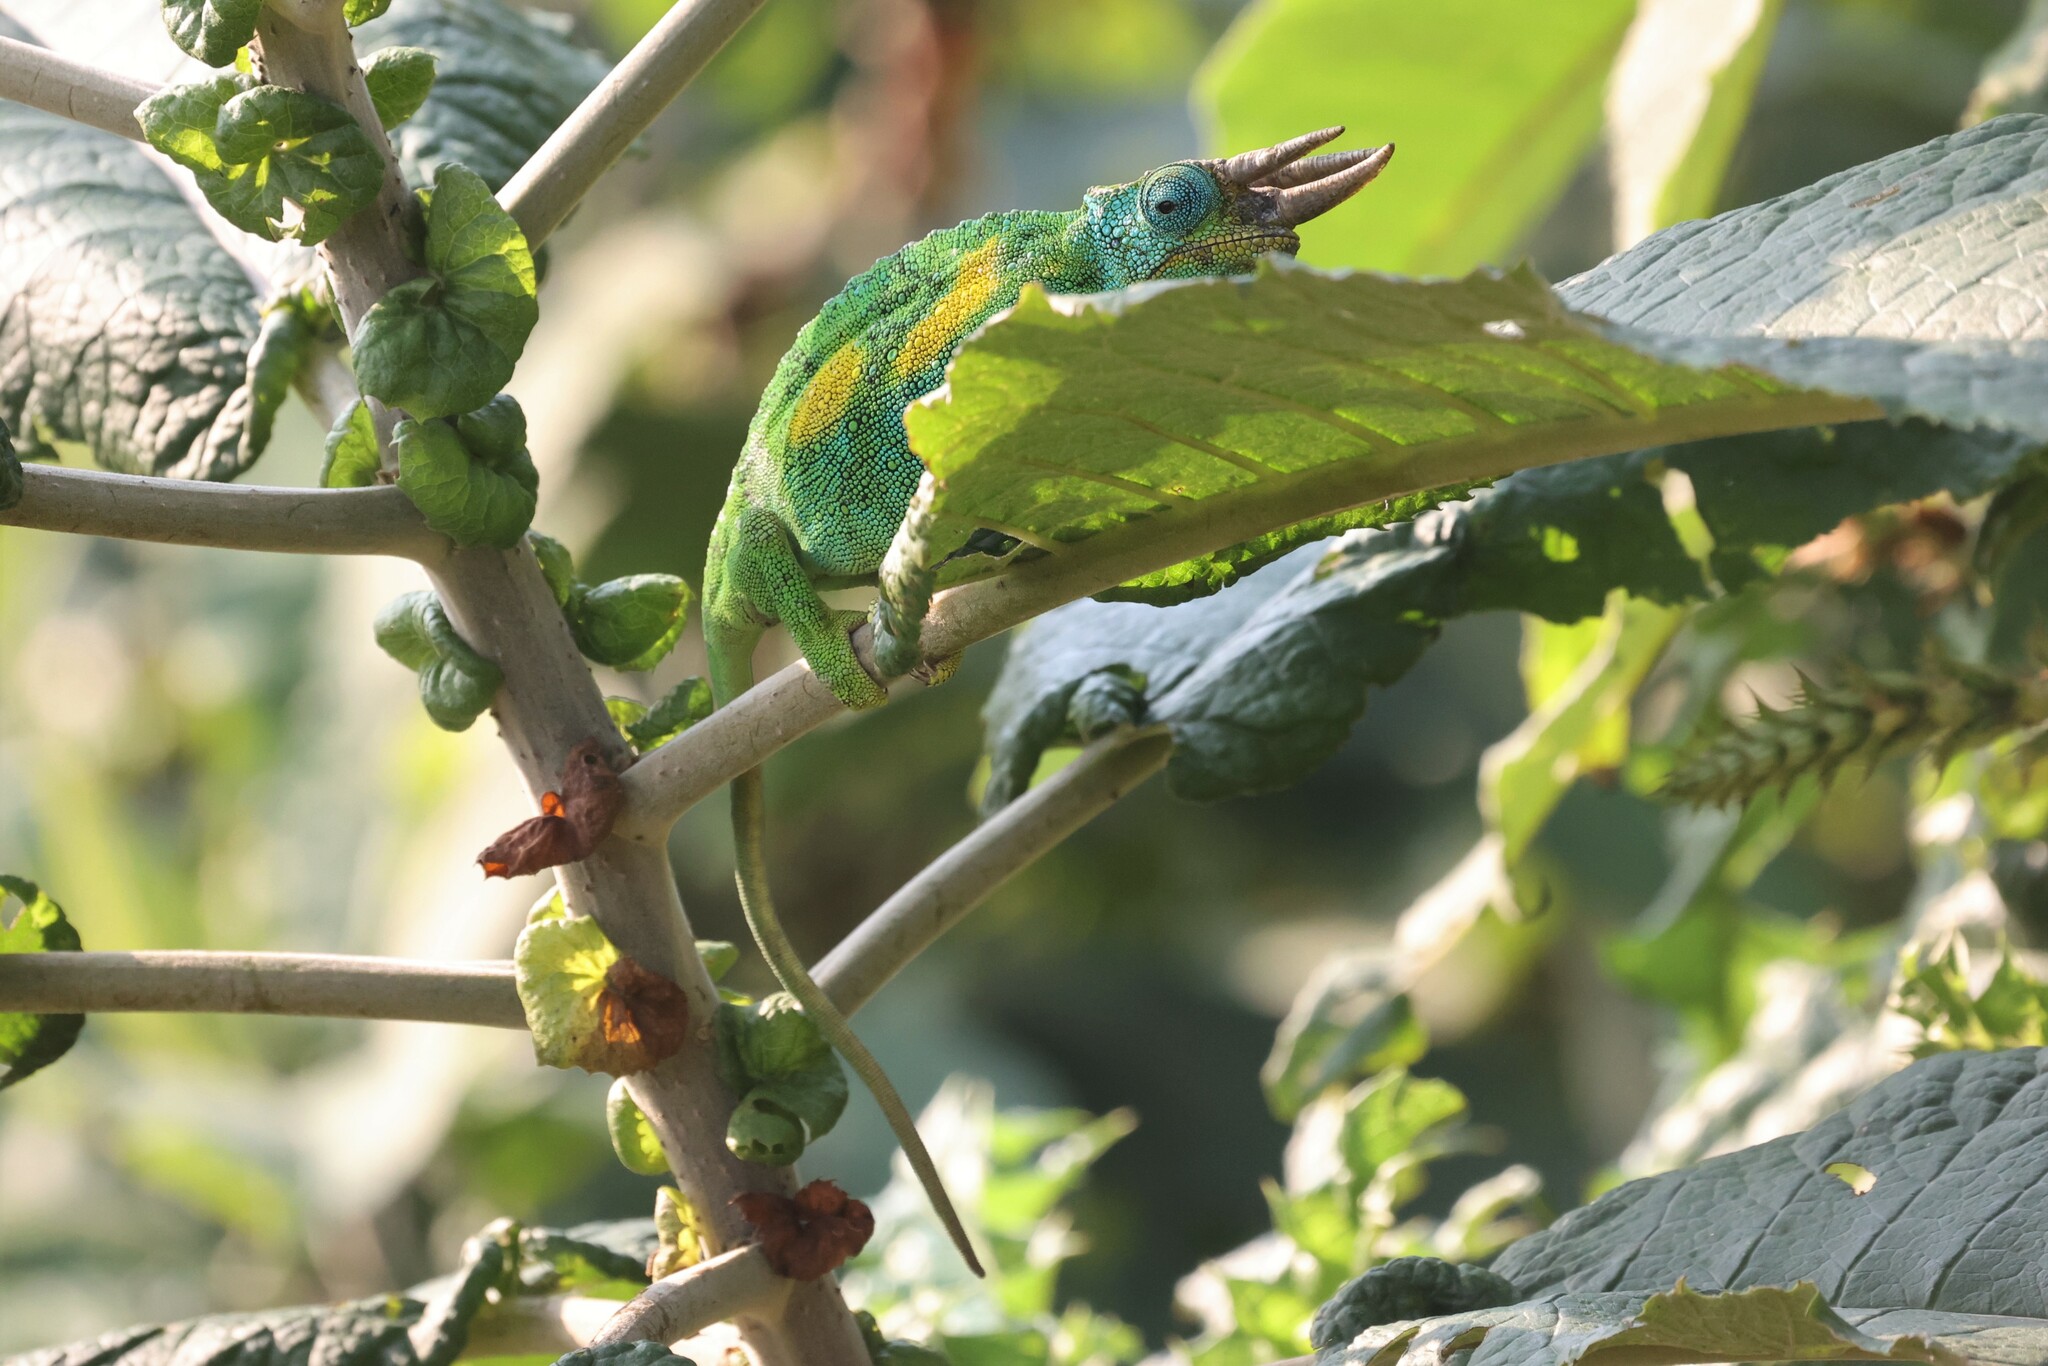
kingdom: Animalia
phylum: Chordata
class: Squamata
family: Chamaeleonidae
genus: Trioceros
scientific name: Trioceros johnstoni
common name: Johnston's chameleon
